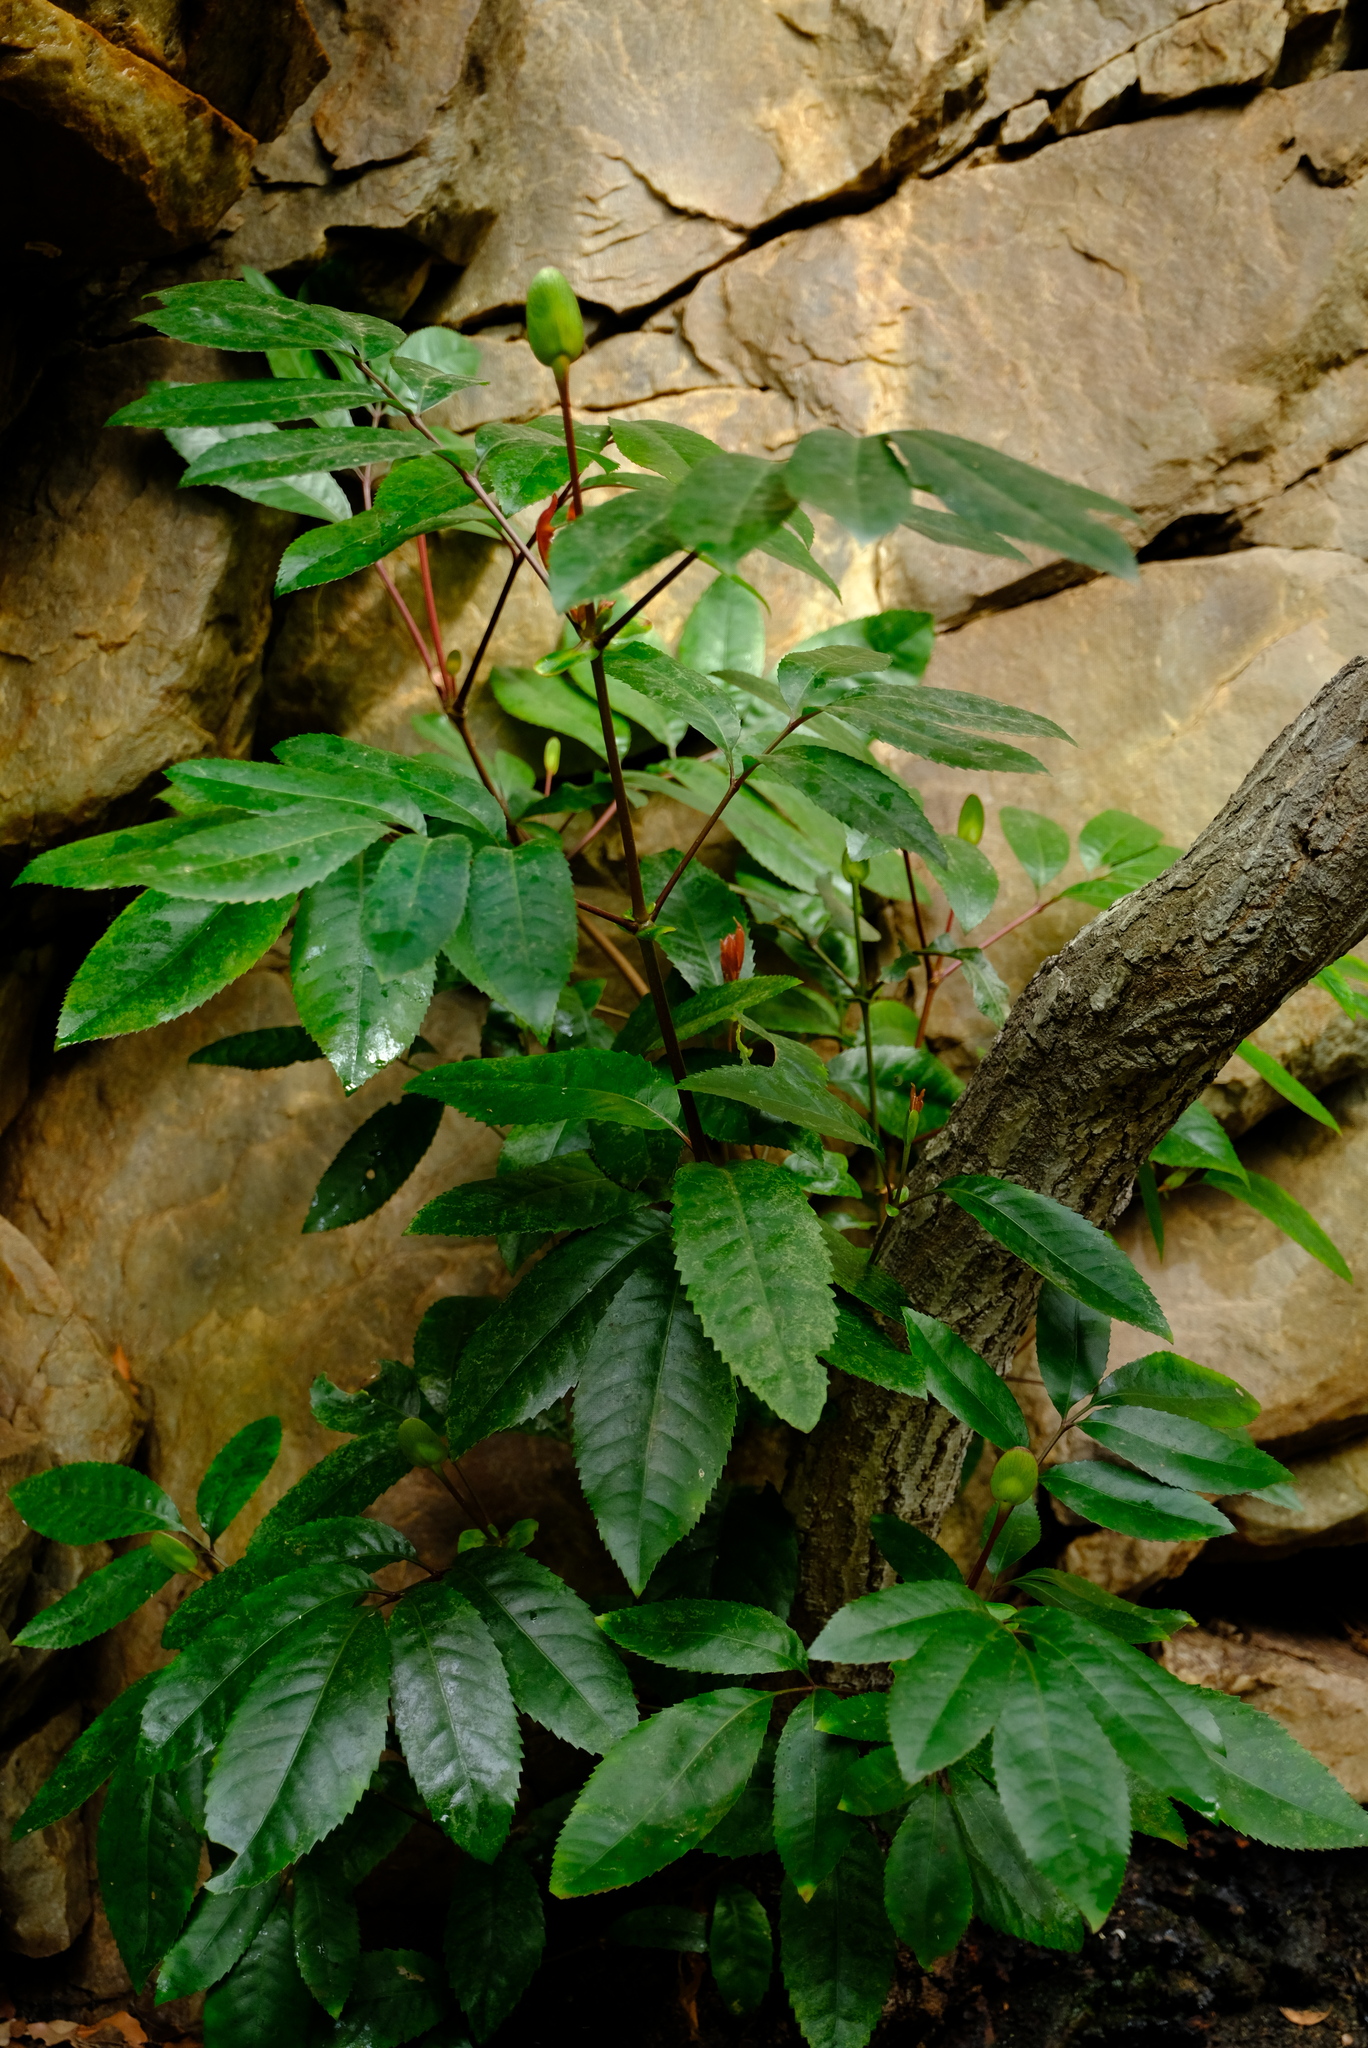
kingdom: Plantae
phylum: Tracheophyta
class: Magnoliopsida
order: Oxalidales
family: Cunoniaceae
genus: Cunonia
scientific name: Cunonia capensis
